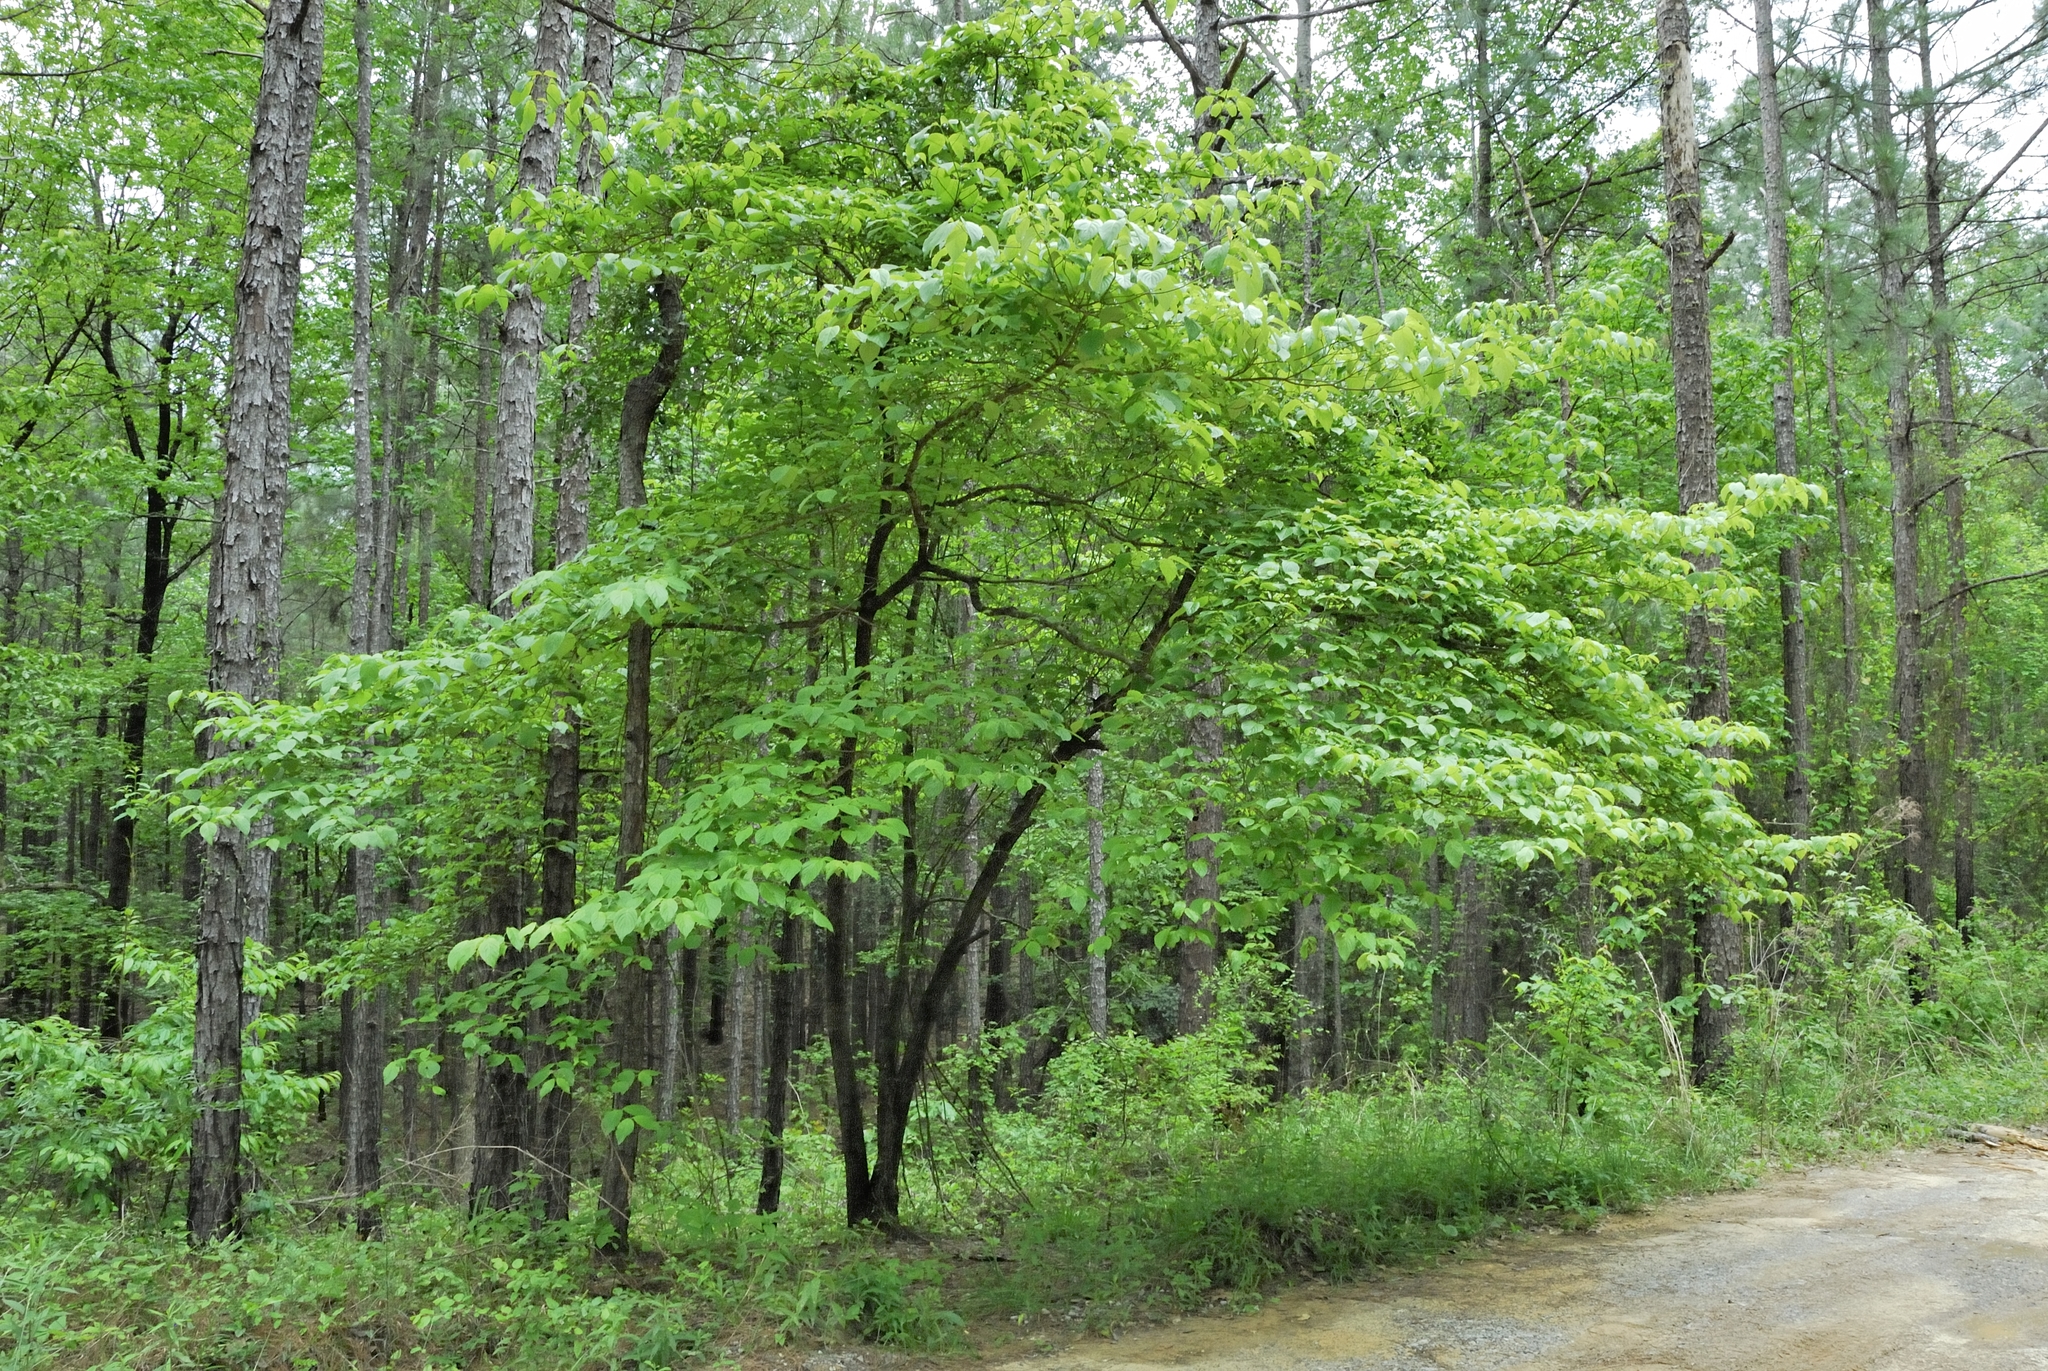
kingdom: Plantae
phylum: Tracheophyta
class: Magnoliopsida
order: Cornales
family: Cornaceae
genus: Cornus
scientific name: Cornus florida
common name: Flowering dogwood
